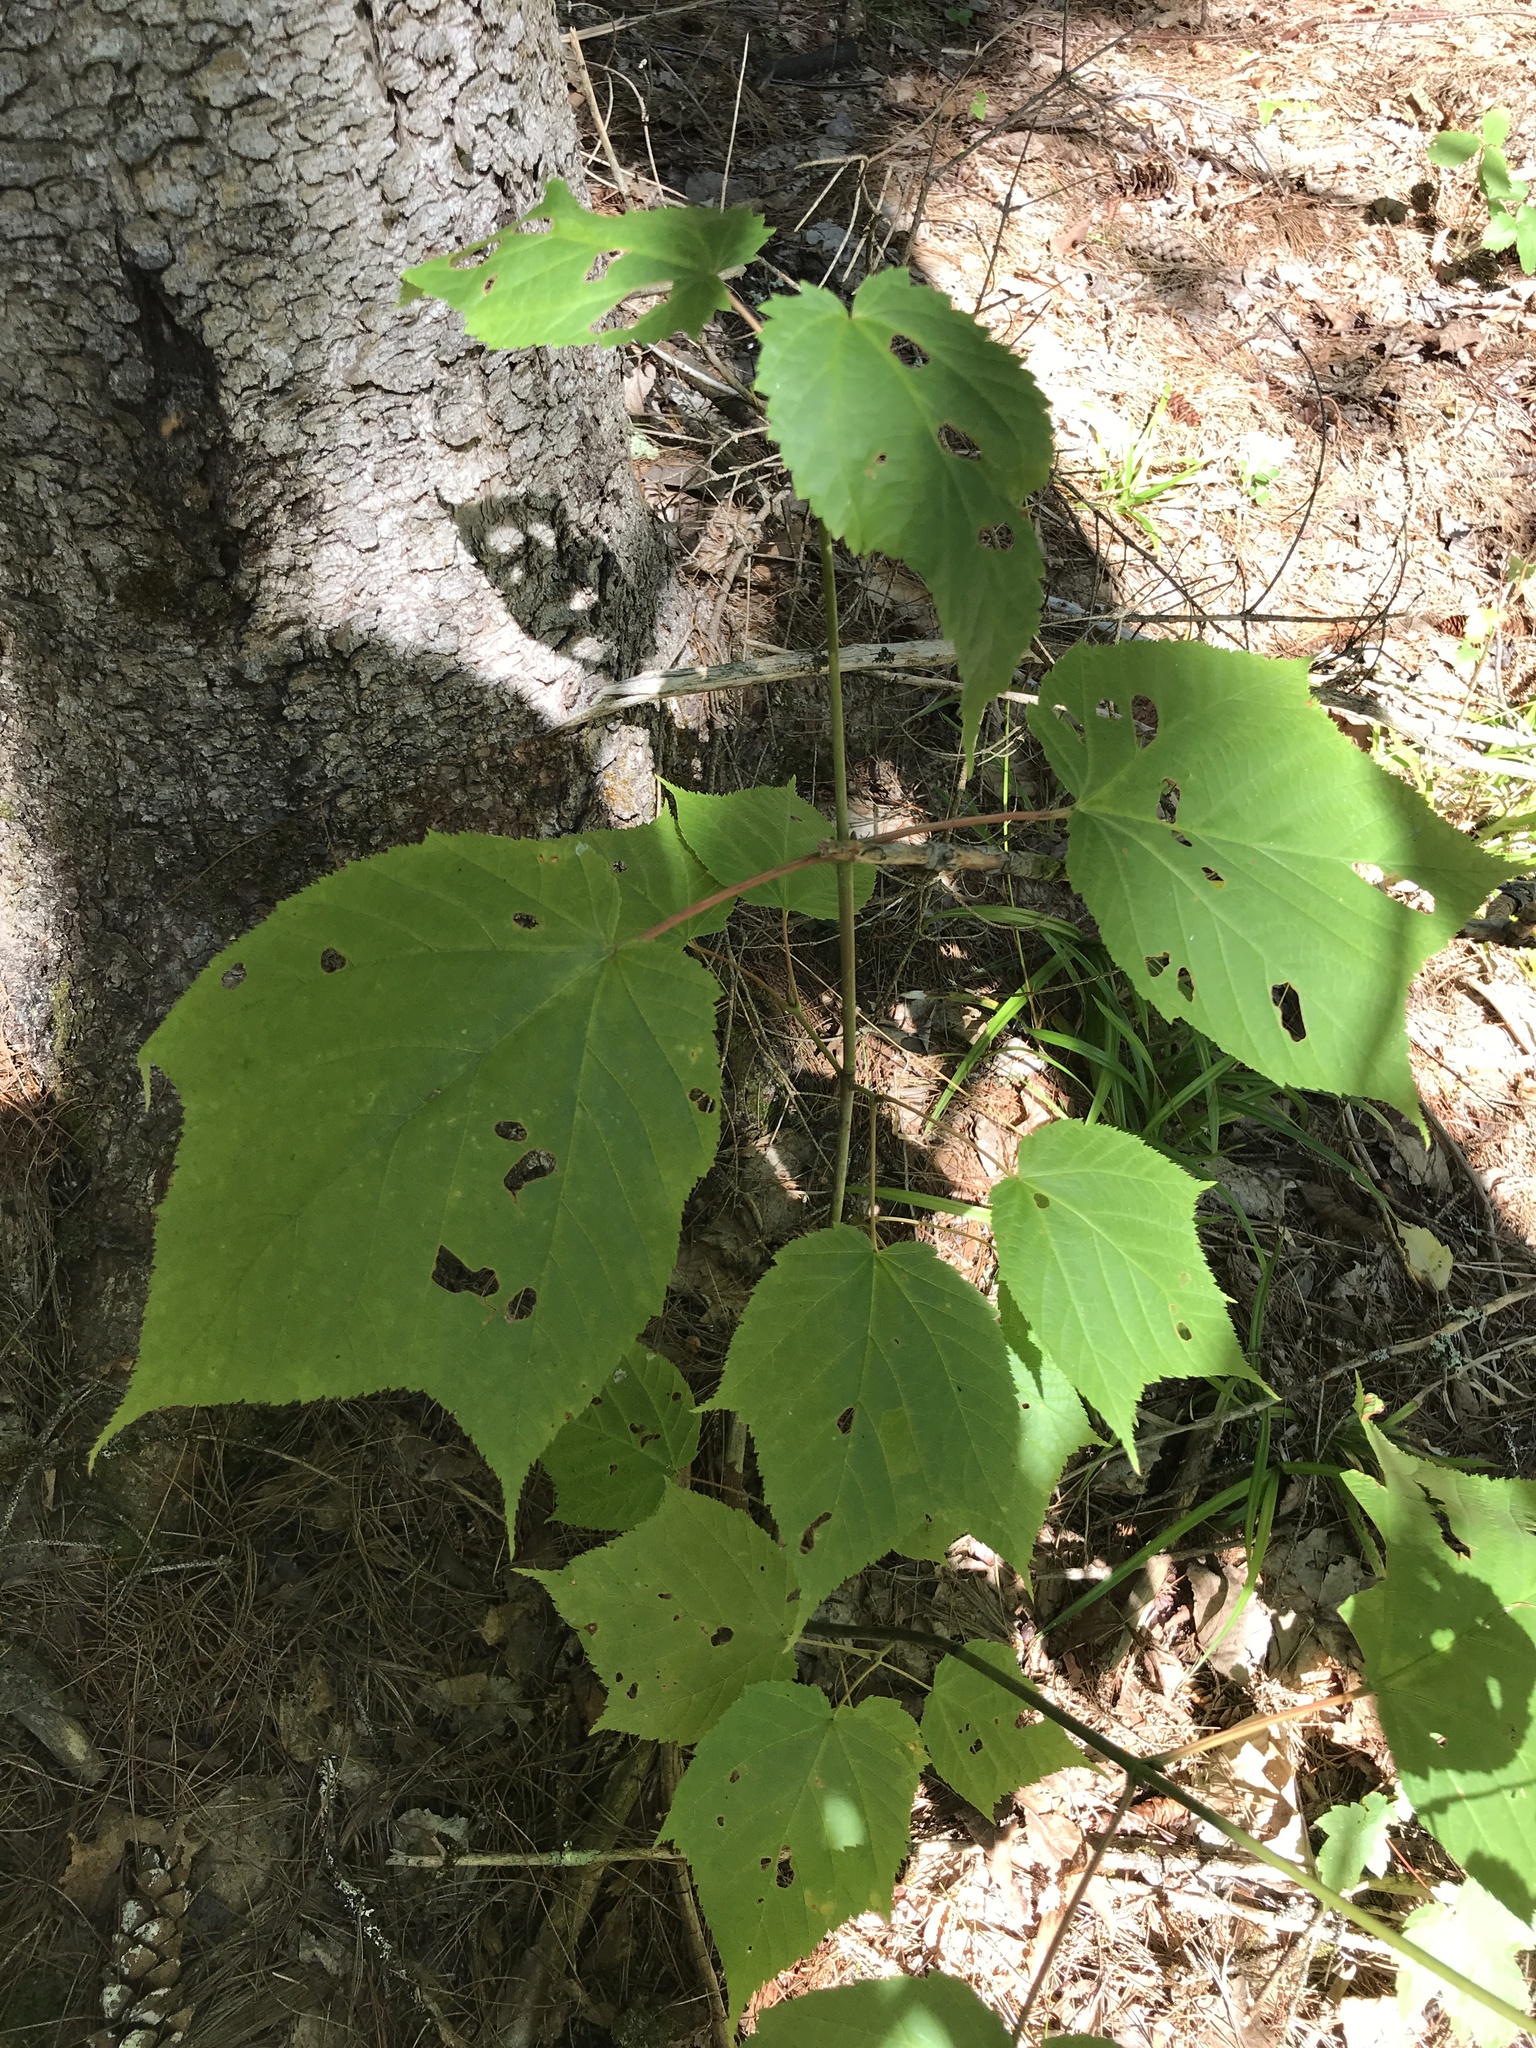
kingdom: Plantae
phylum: Tracheophyta
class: Magnoliopsida
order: Sapindales
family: Sapindaceae
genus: Acer
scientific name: Acer pensylvanicum
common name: Moosewood
